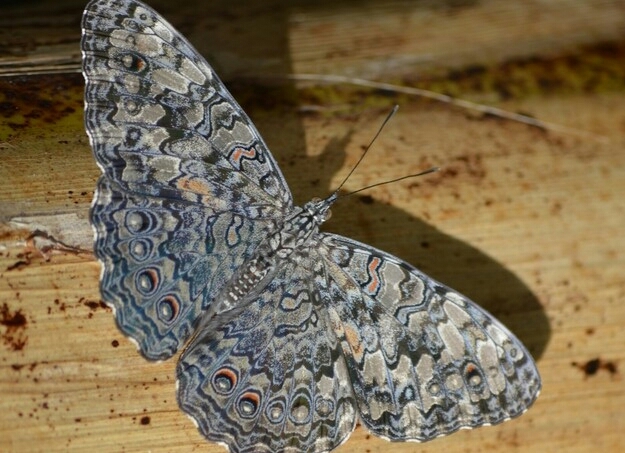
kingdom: Animalia
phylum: Arthropoda
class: Insecta
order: Lepidoptera
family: Nymphalidae
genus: Hamadryas
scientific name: Hamadryas feronia
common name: Variable cracker
